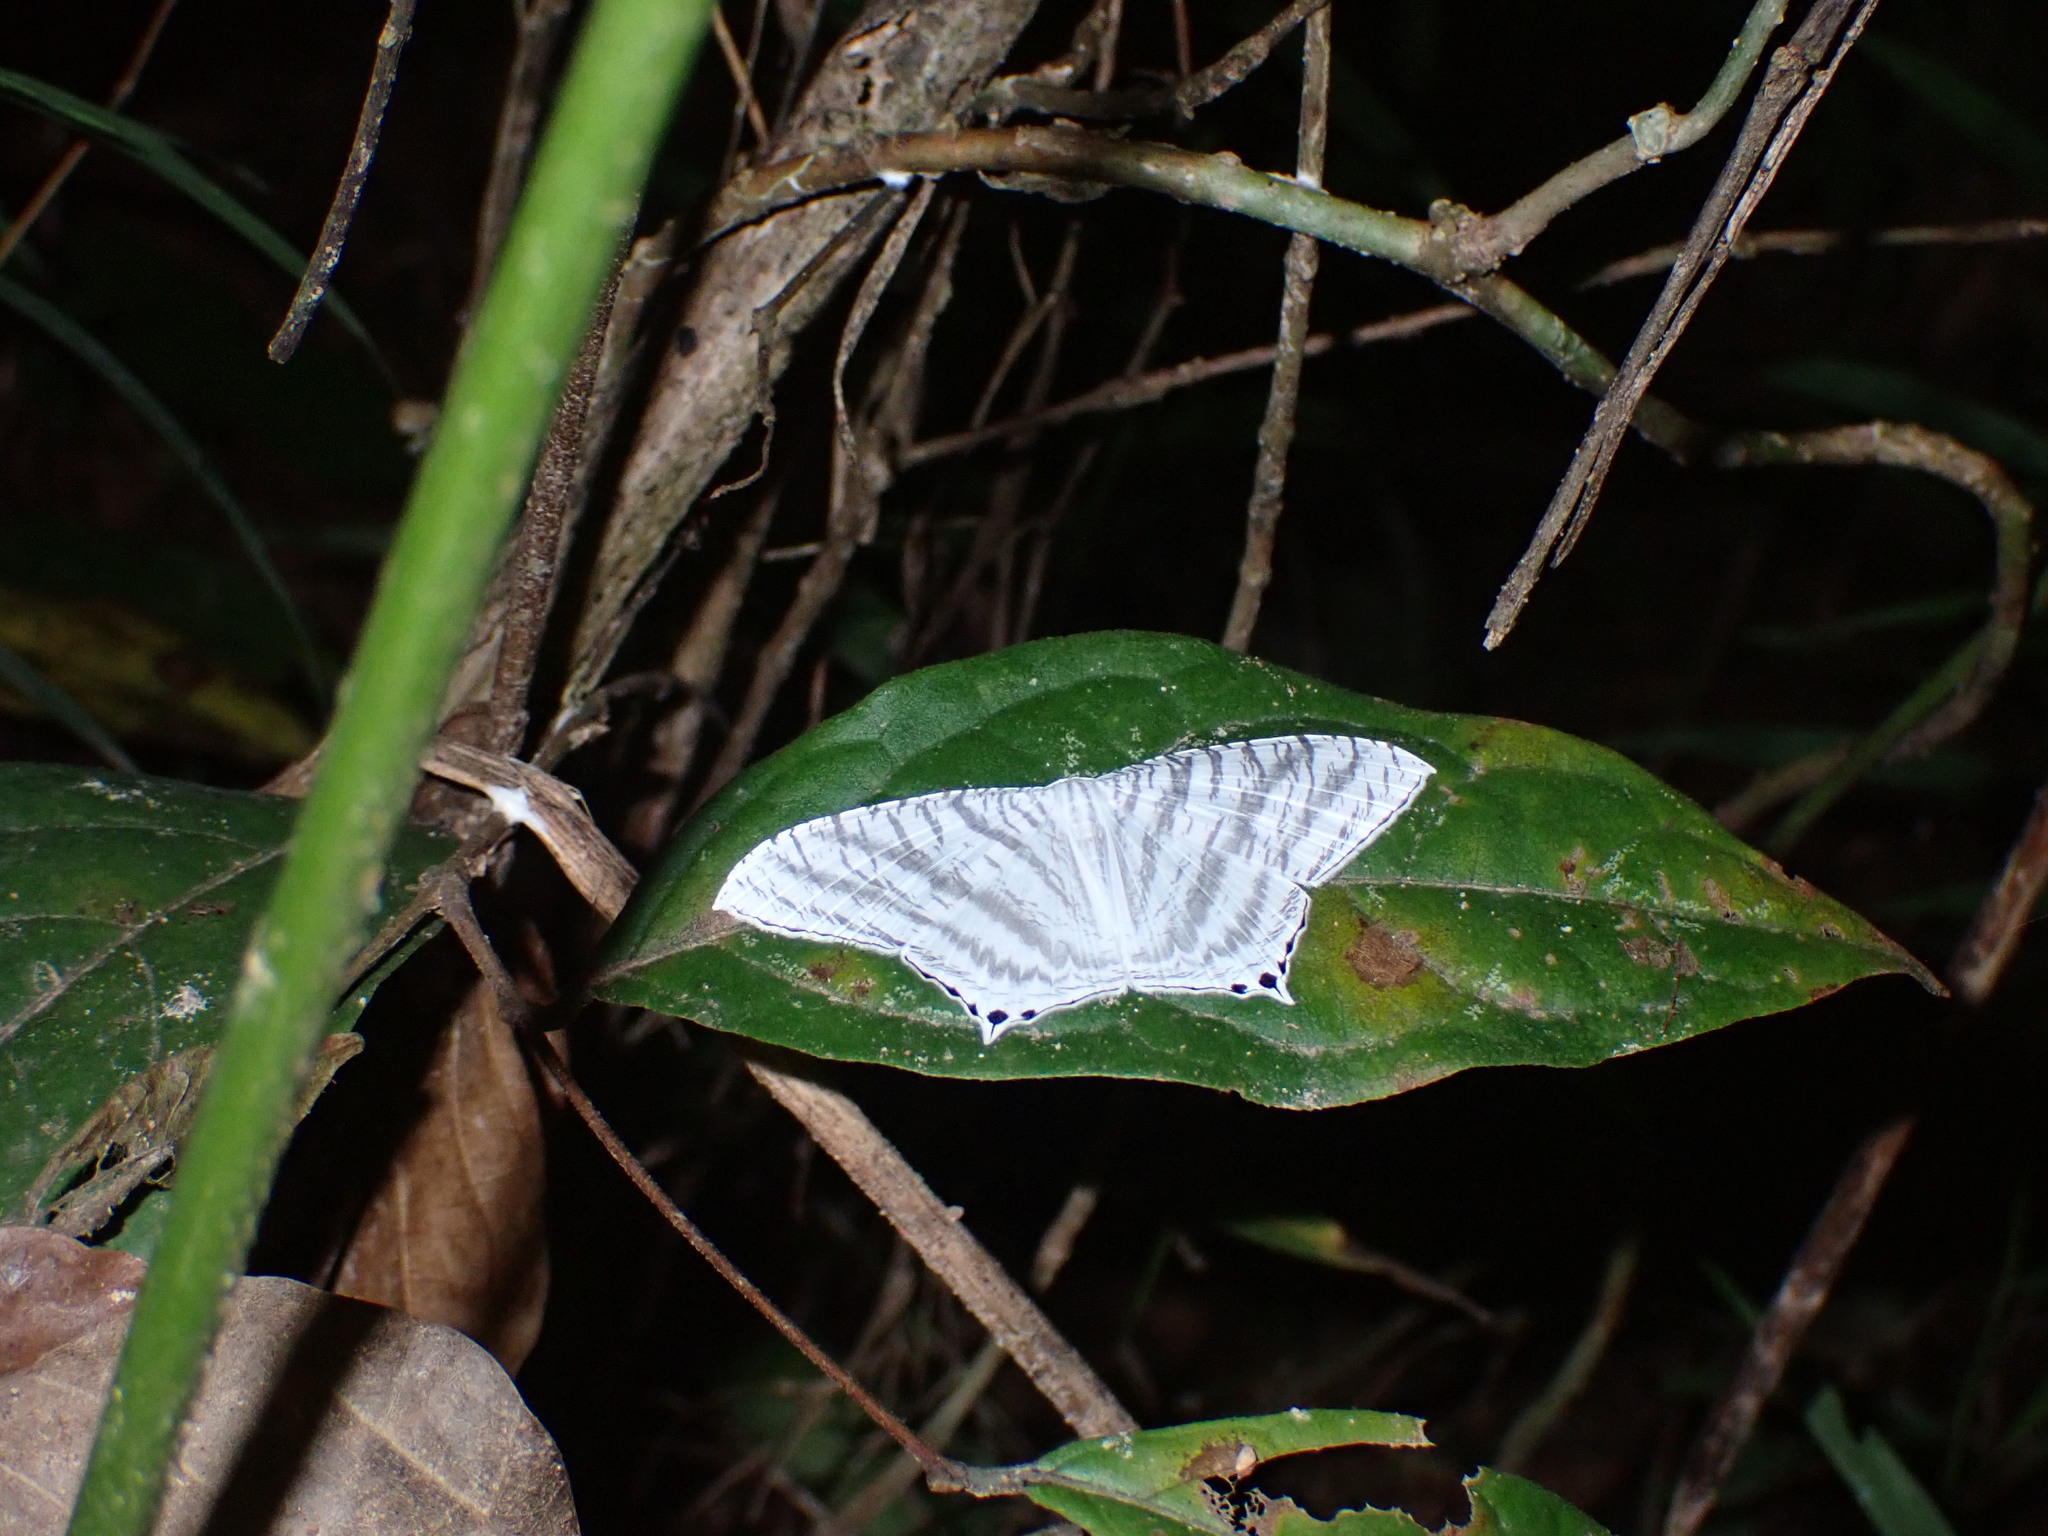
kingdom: Animalia
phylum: Arthropoda
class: Insecta
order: Lepidoptera
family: Uraniidae
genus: Micronia
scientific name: Micronia aculeata
